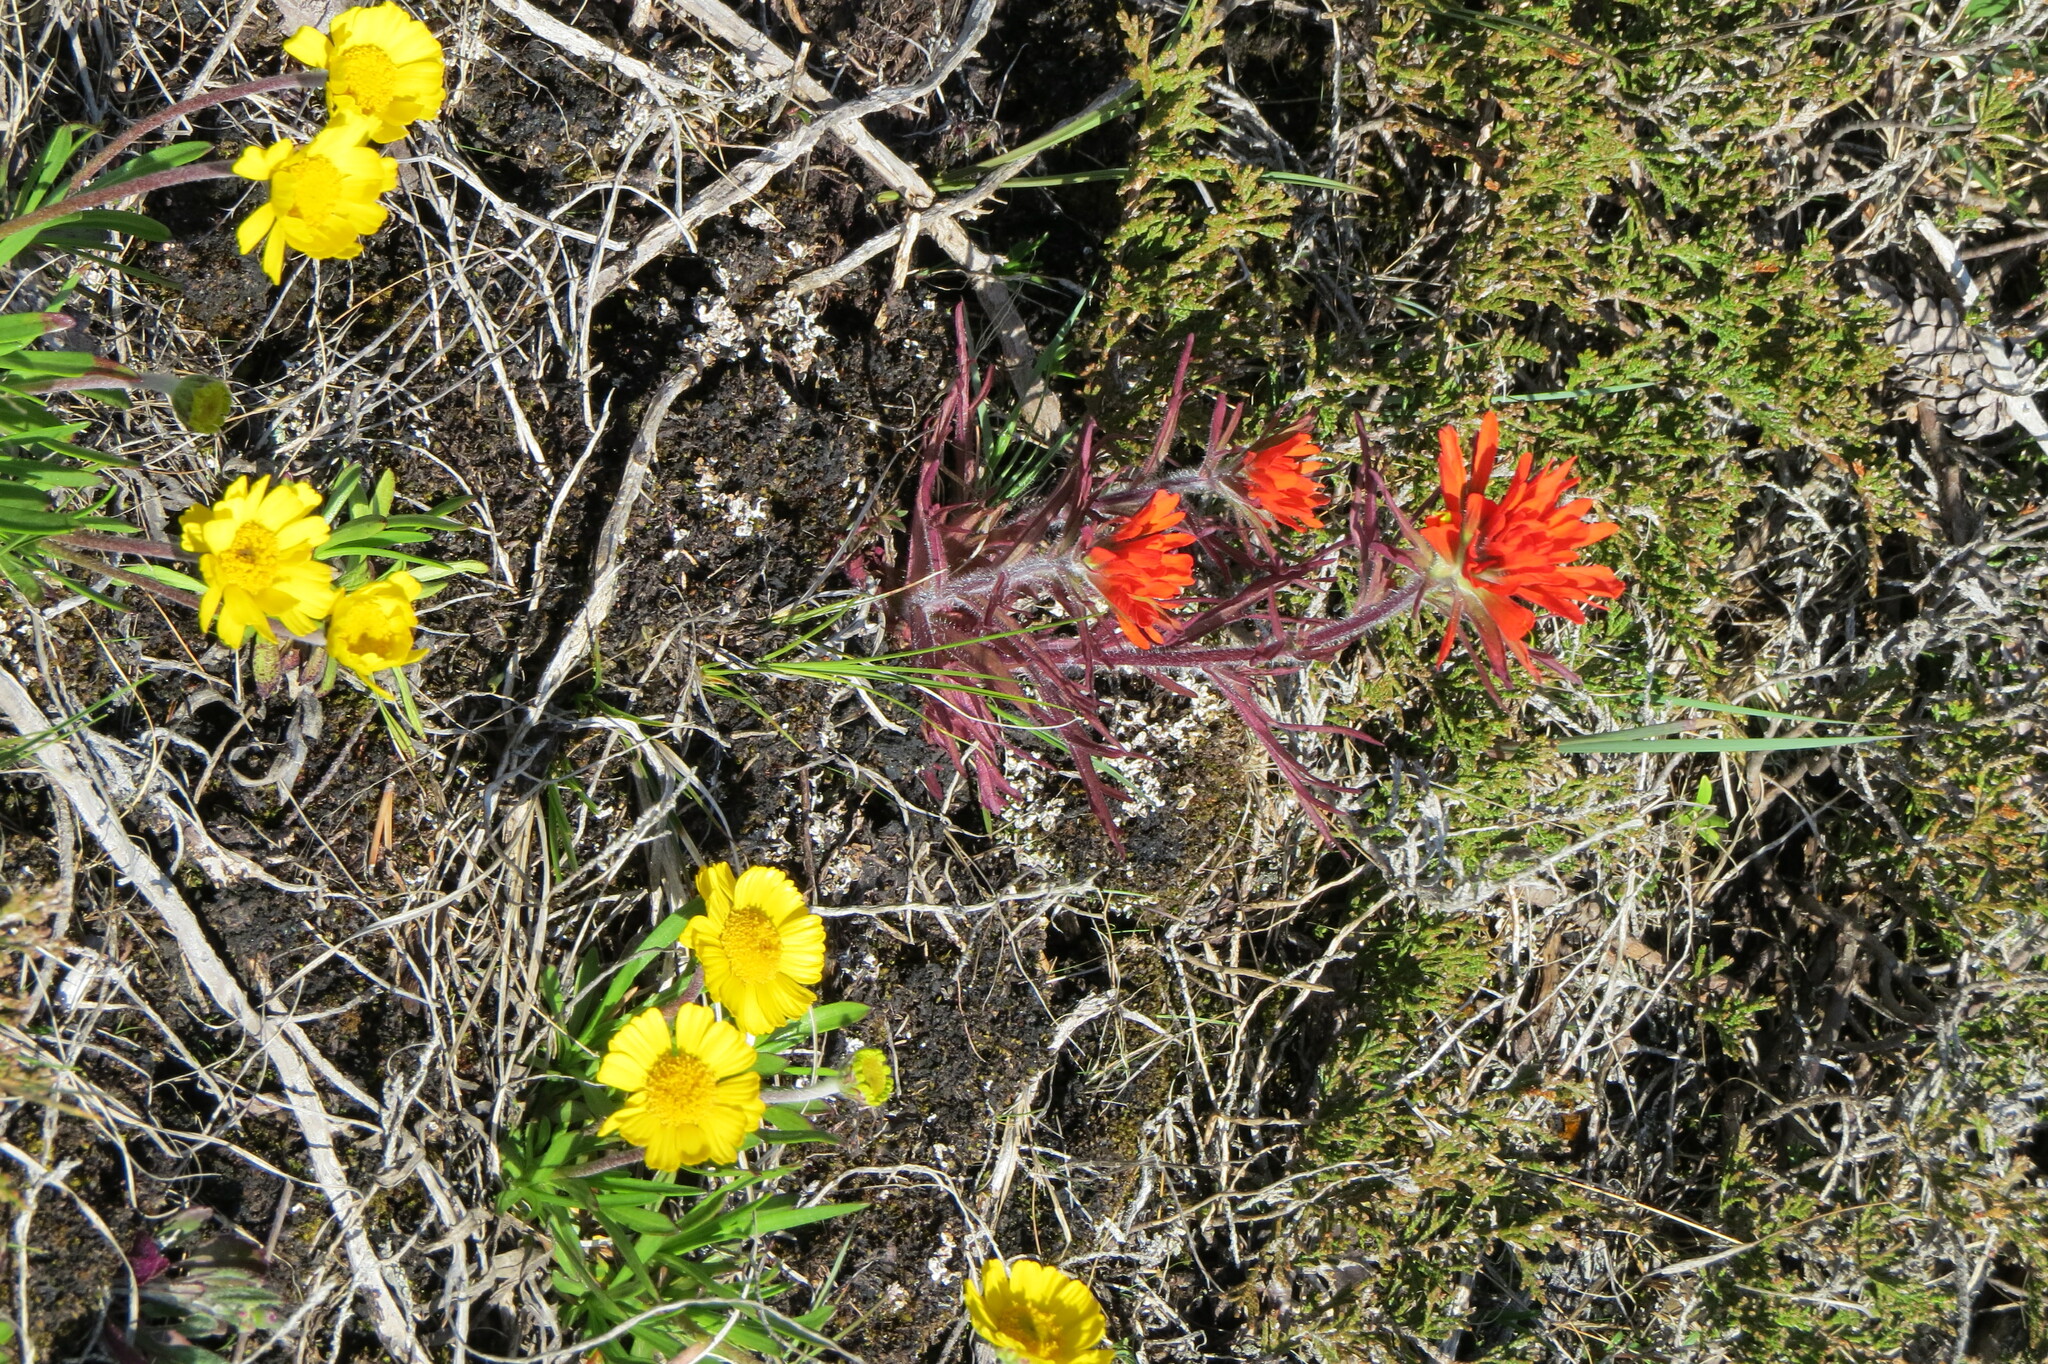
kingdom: Plantae
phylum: Tracheophyta
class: Magnoliopsida
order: Lamiales
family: Orobanchaceae
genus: Castilleja
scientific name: Castilleja coccinea
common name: Scarlet paintbrush
